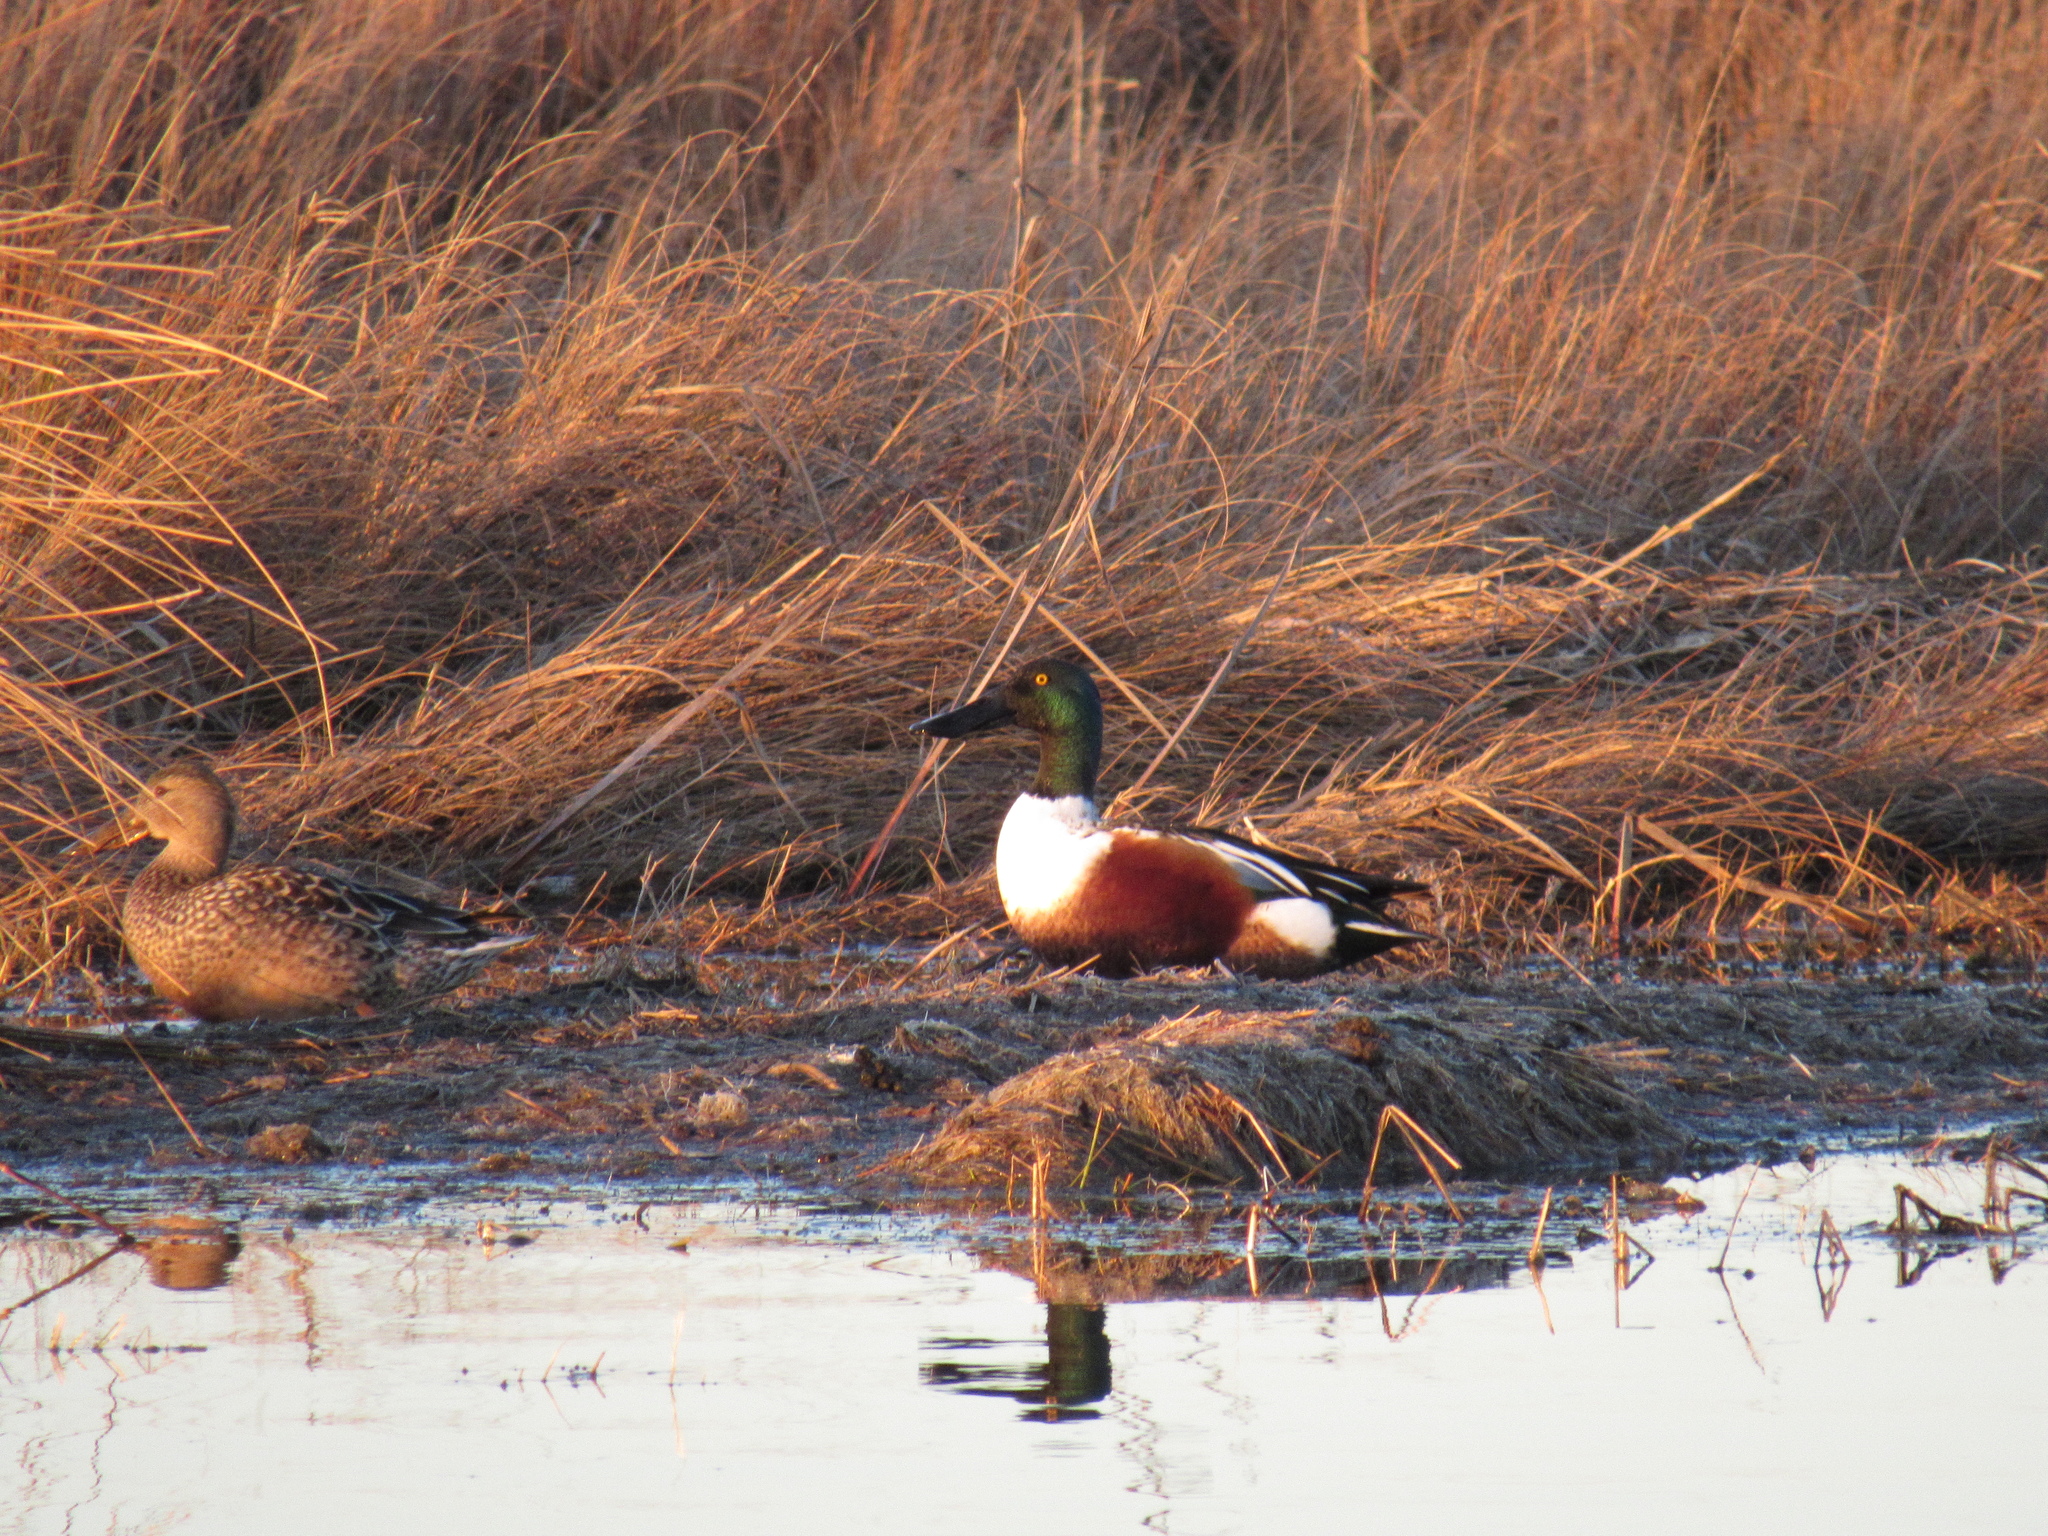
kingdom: Animalia
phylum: Chordata
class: Aves
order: Anseriformes
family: Anatidae
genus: Spatula
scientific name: Spatula clypeata
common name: Northern shoveler
